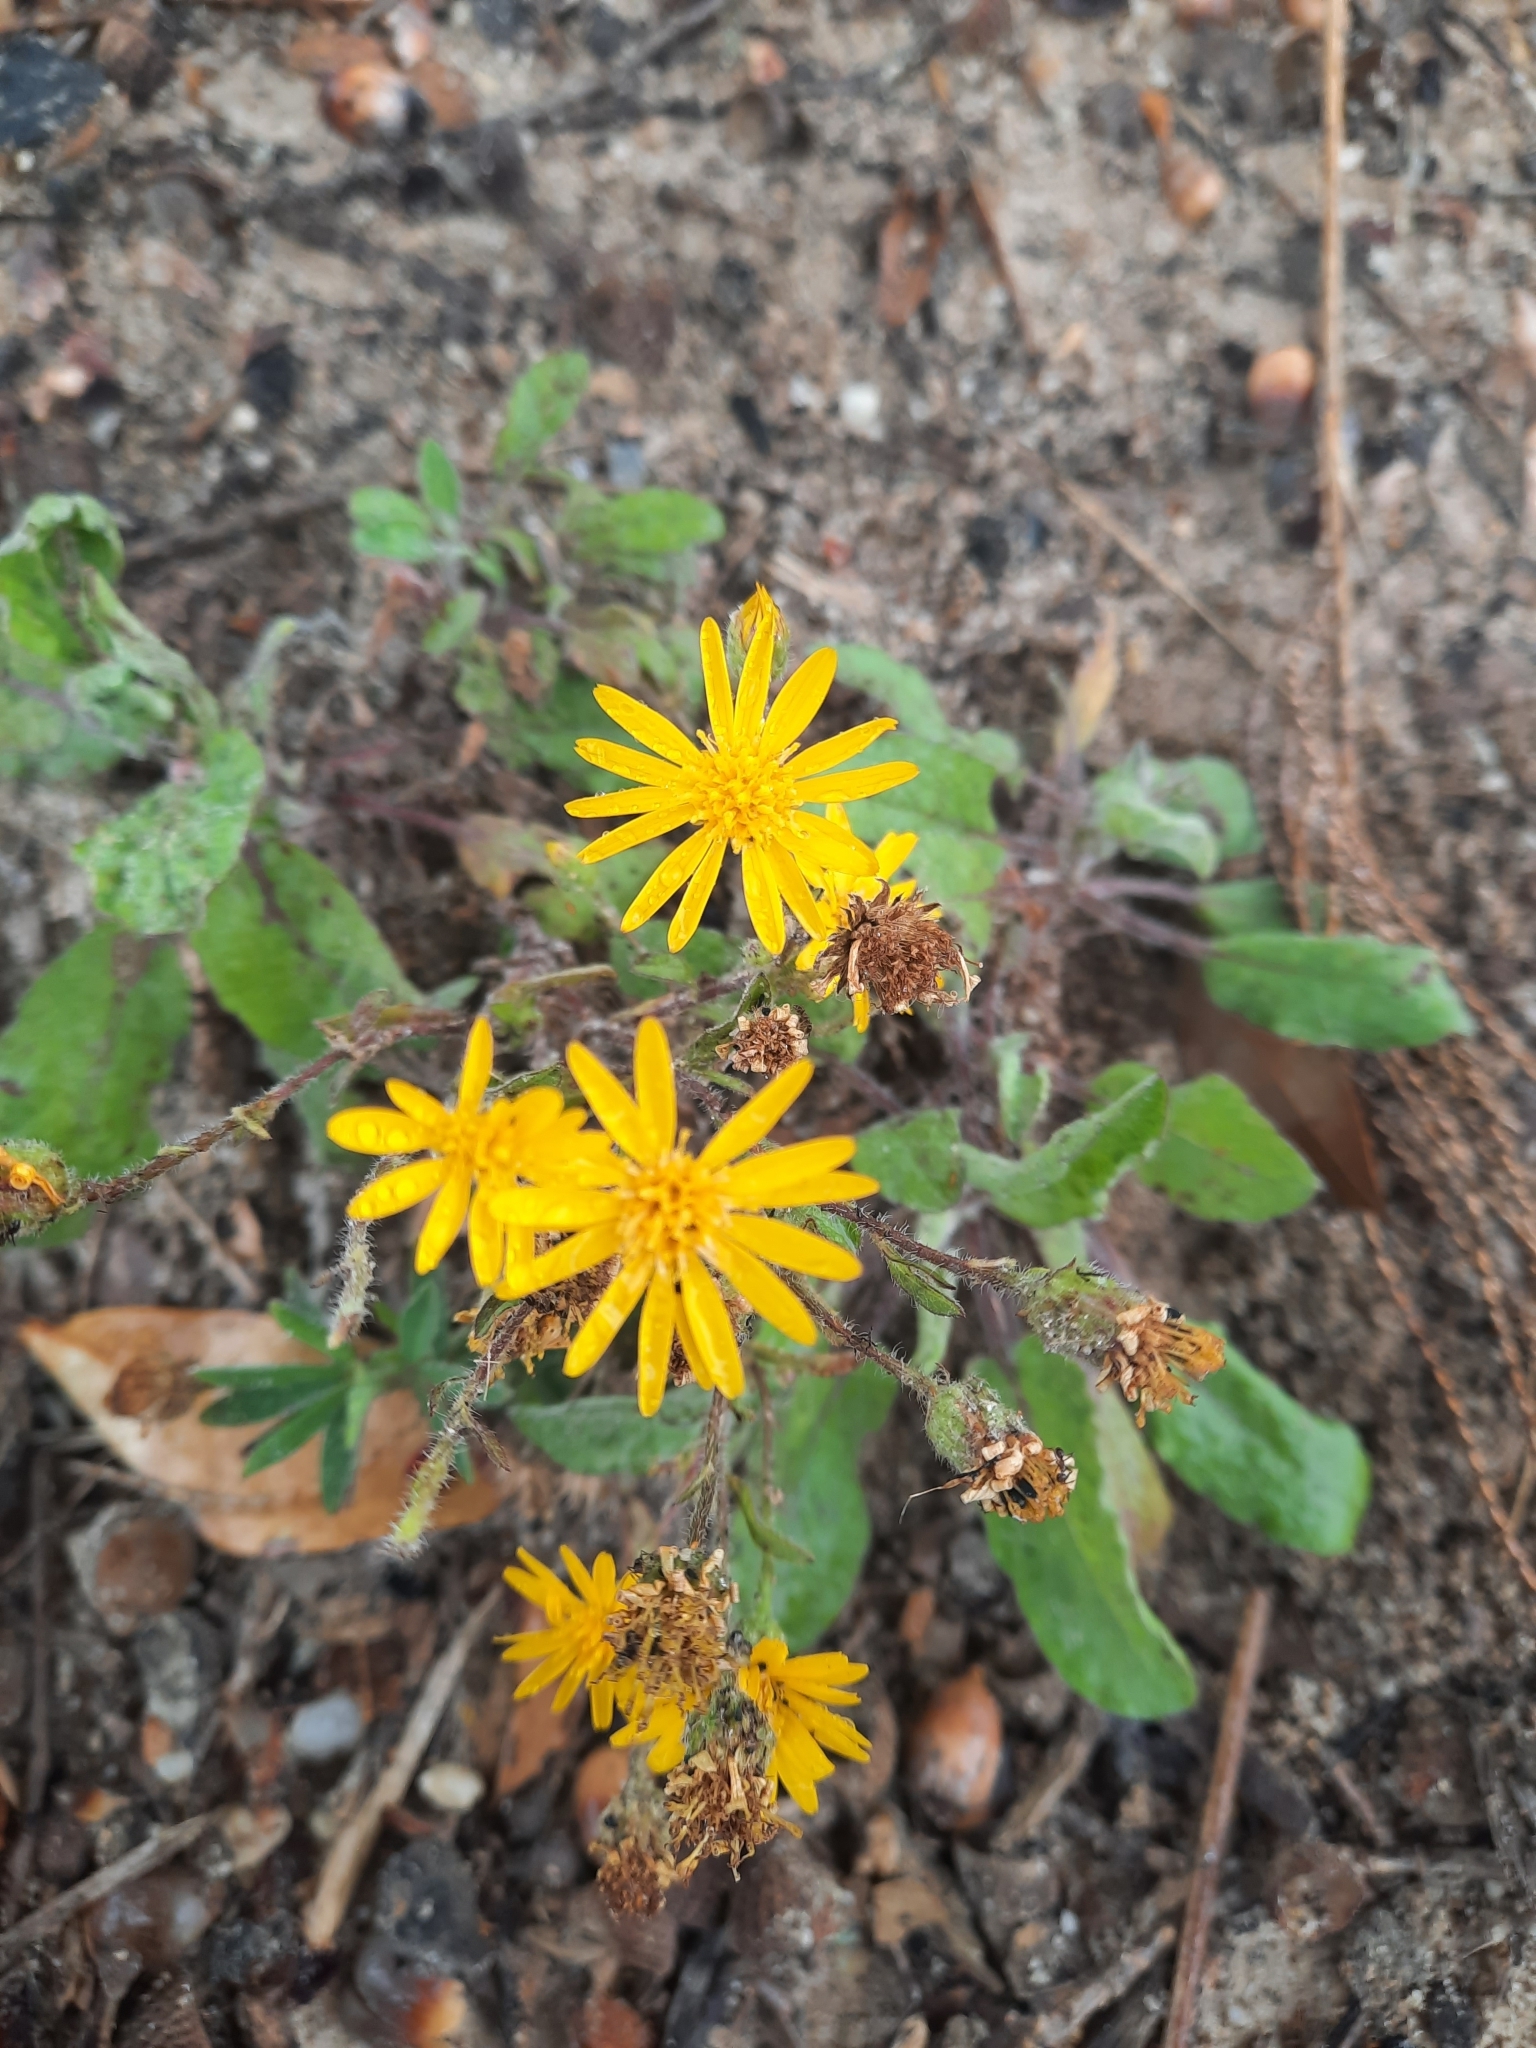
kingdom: Plantae
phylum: Tracheophyta
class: Magnoliopsida
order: Asterales
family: Asteraceae
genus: Heterotheca
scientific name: Heterotheca subaxillaris
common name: Camphorweed
